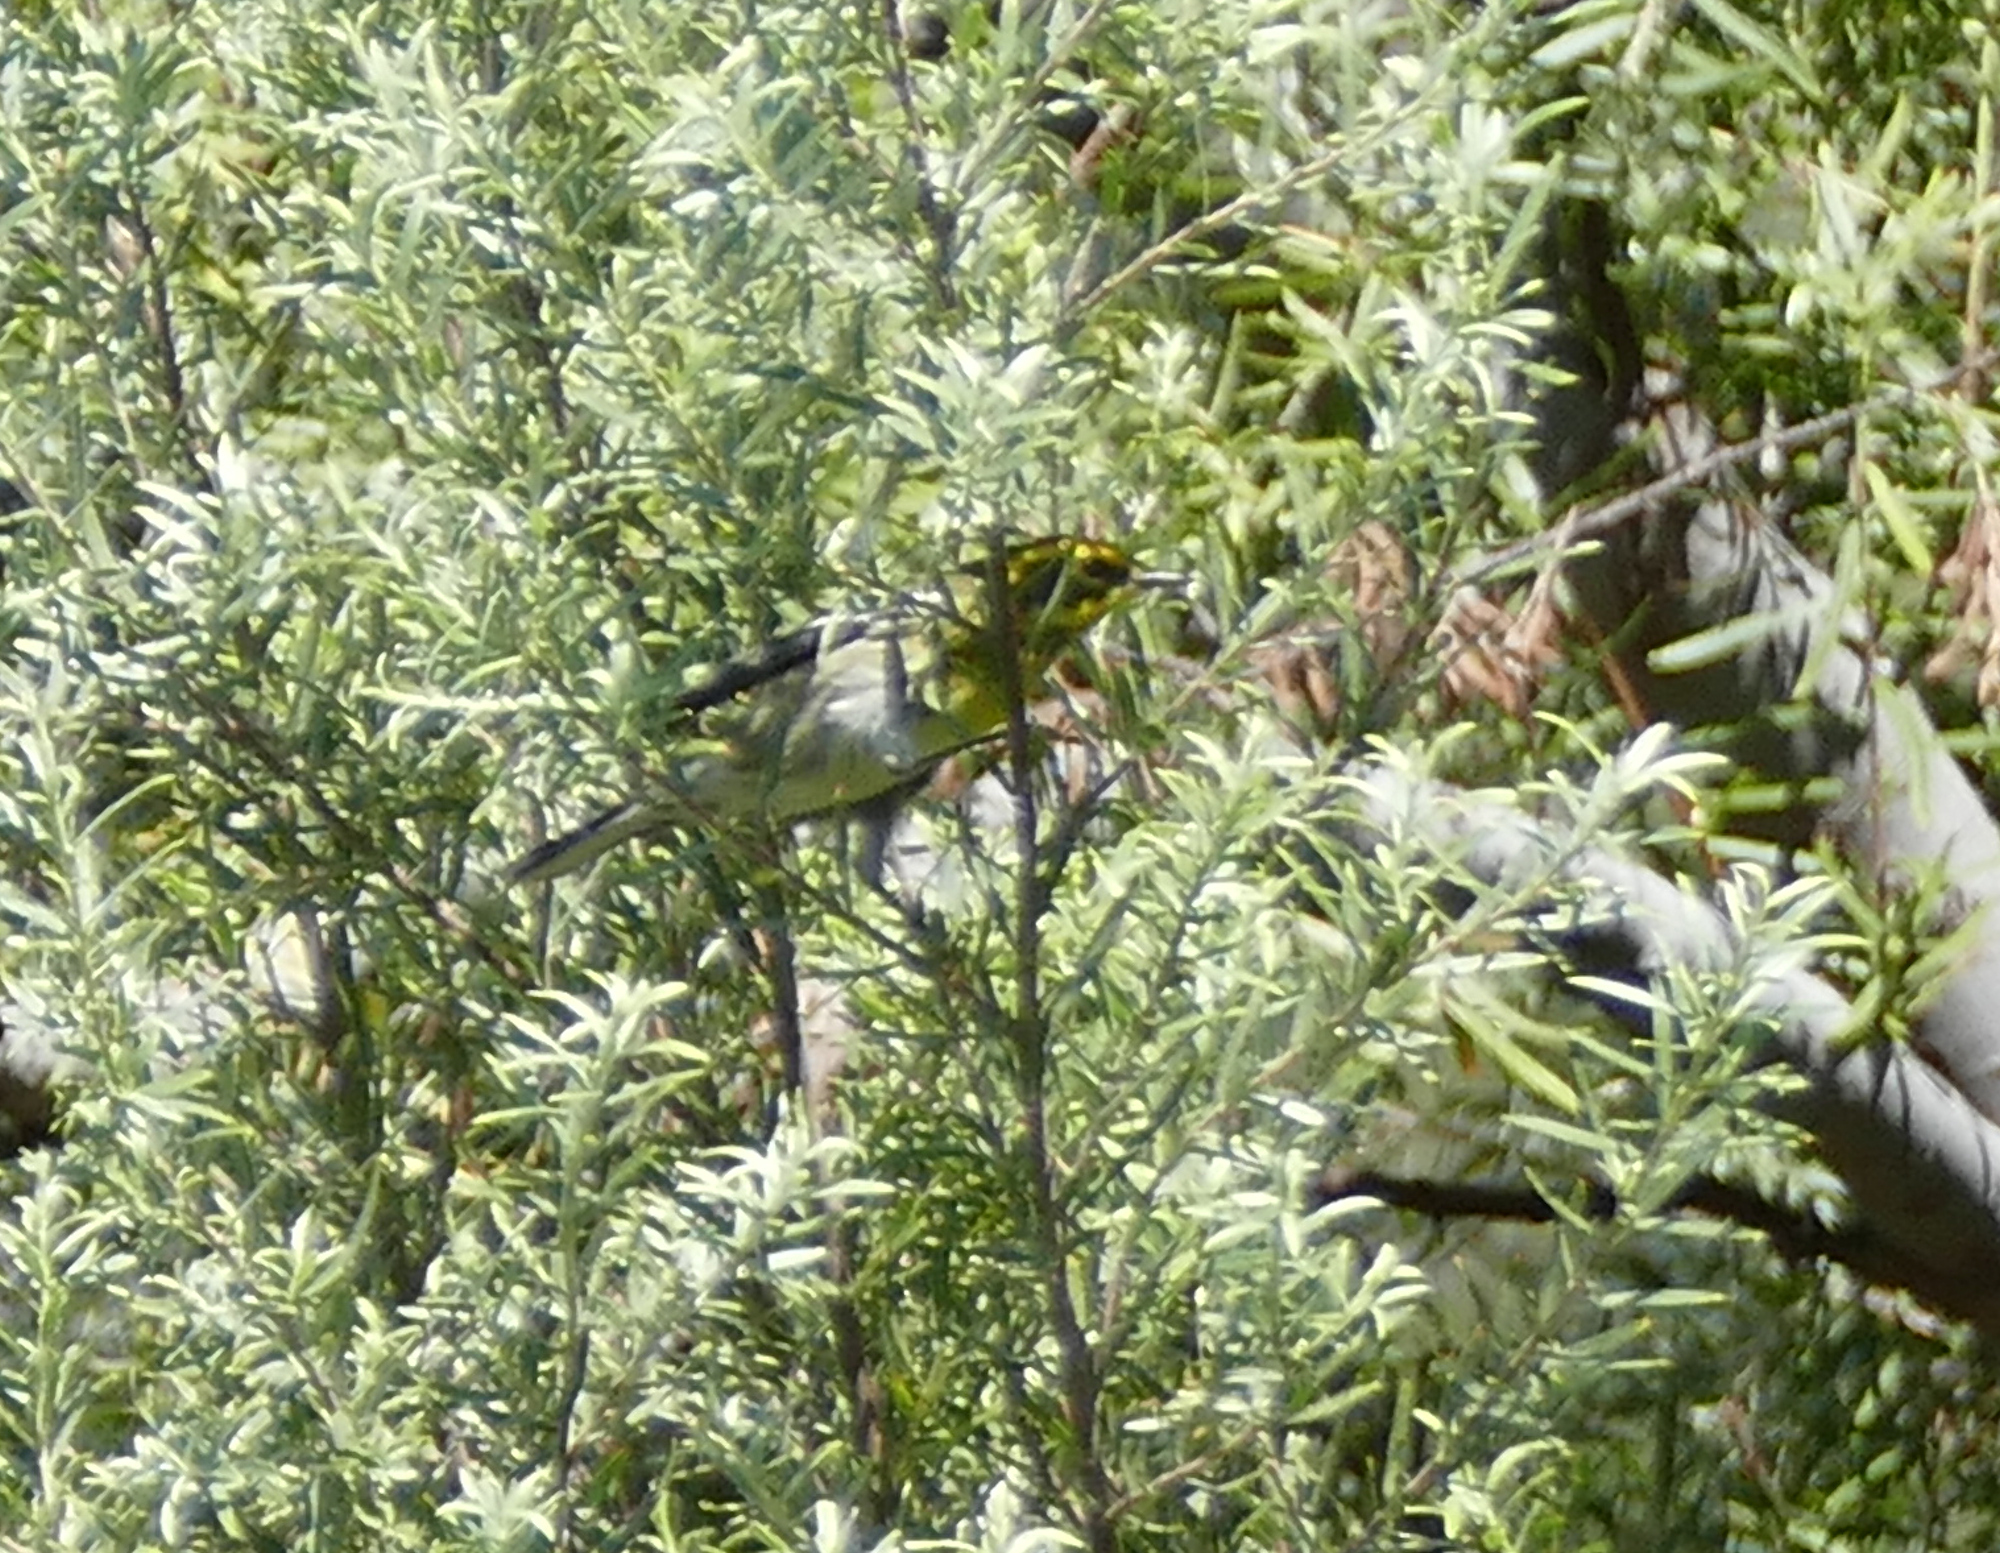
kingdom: Animalia
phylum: Chordata
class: Aves
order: Passeriformes
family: Parulidae
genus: Setophaga
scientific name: Setophaga townsendi
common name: Townsend's warbler
